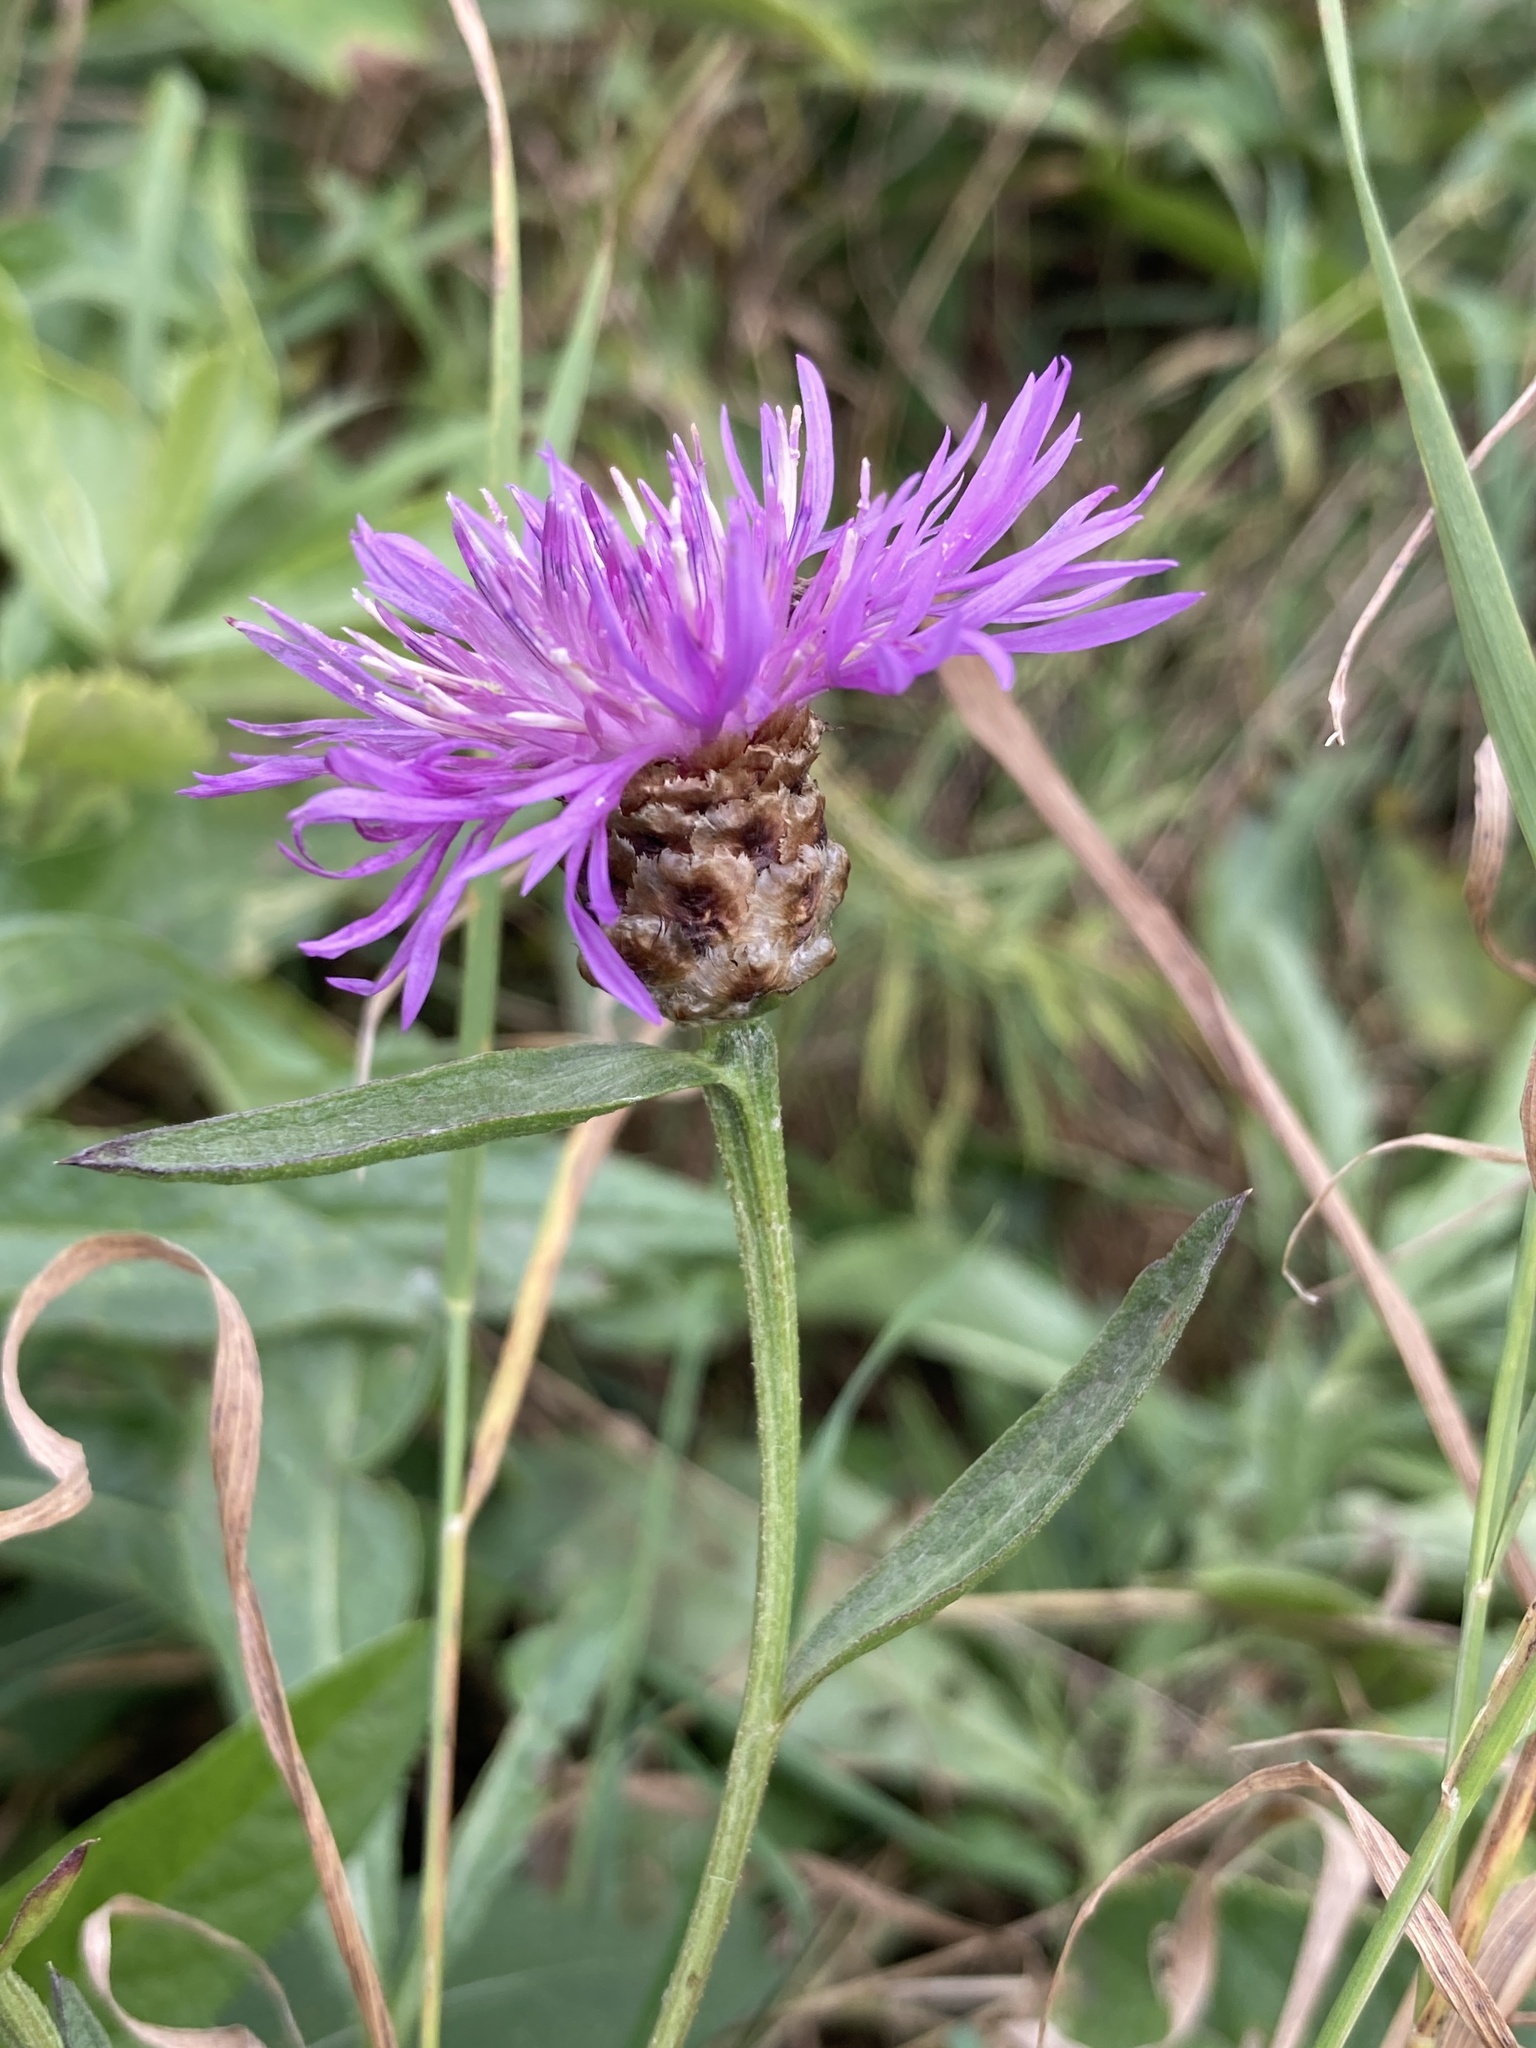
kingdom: Plantae
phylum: Tracheophyta
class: Magnoliopsida
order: Asterales
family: Asteraceae
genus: Centaurea
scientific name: Centaurea jacea
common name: Brown knapweed
